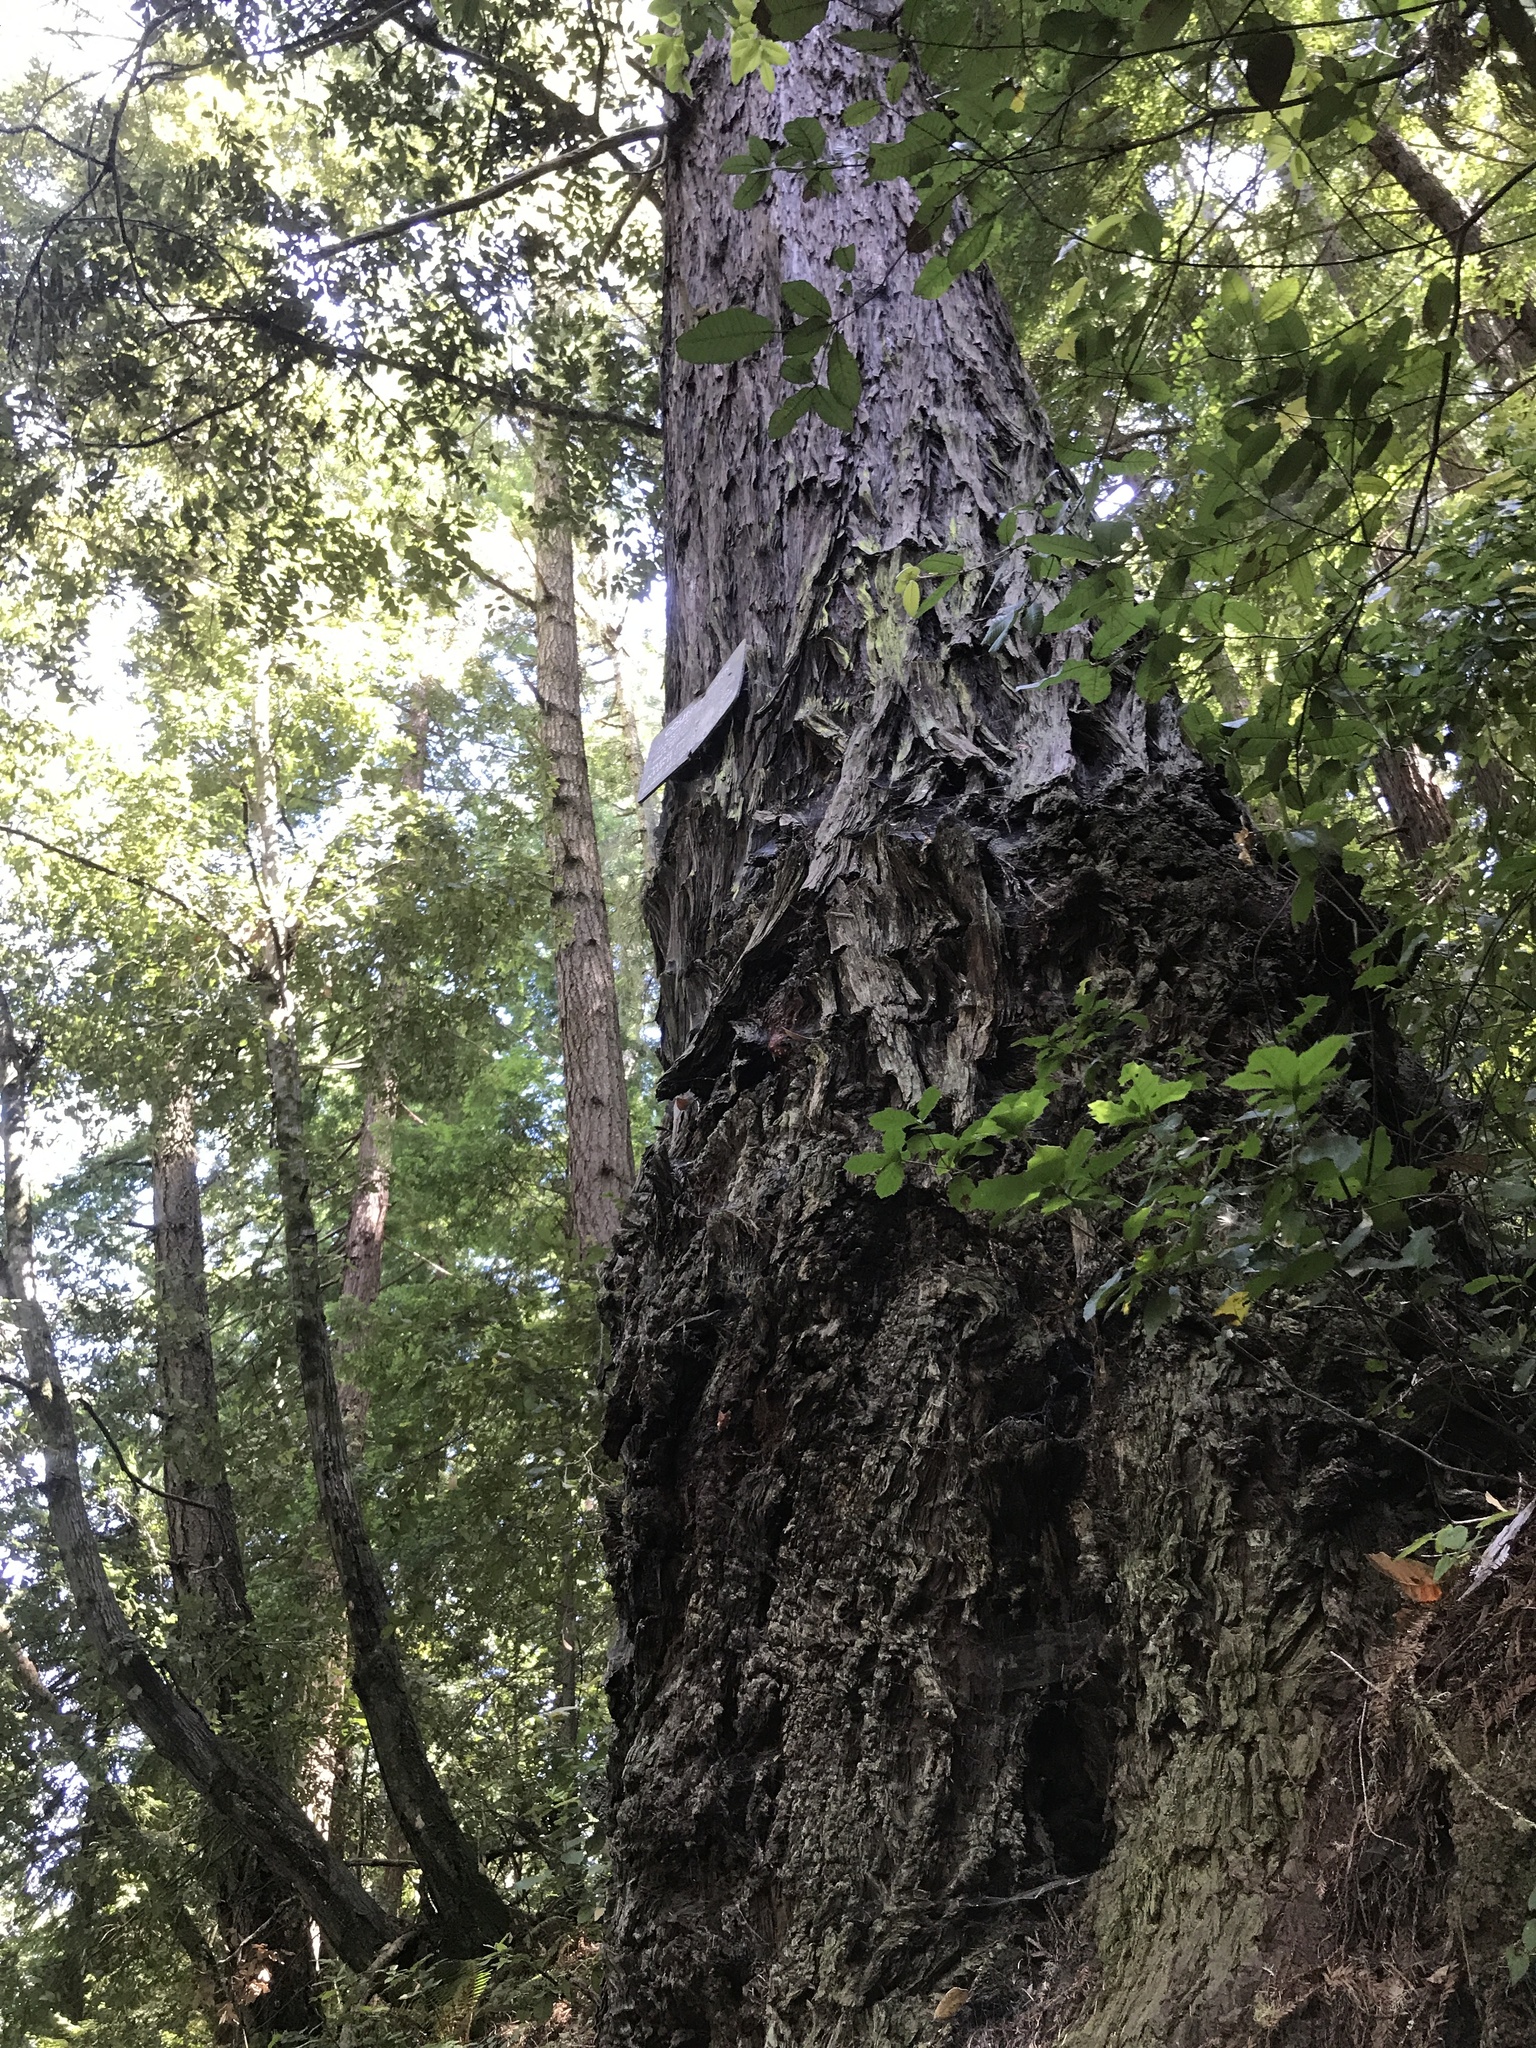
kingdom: Plantae
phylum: Tracheophyta
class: Pinopsida
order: Pinales
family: Cupressaceae
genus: Sequoia
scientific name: Sequoia sempervirens
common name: Coast redwood
